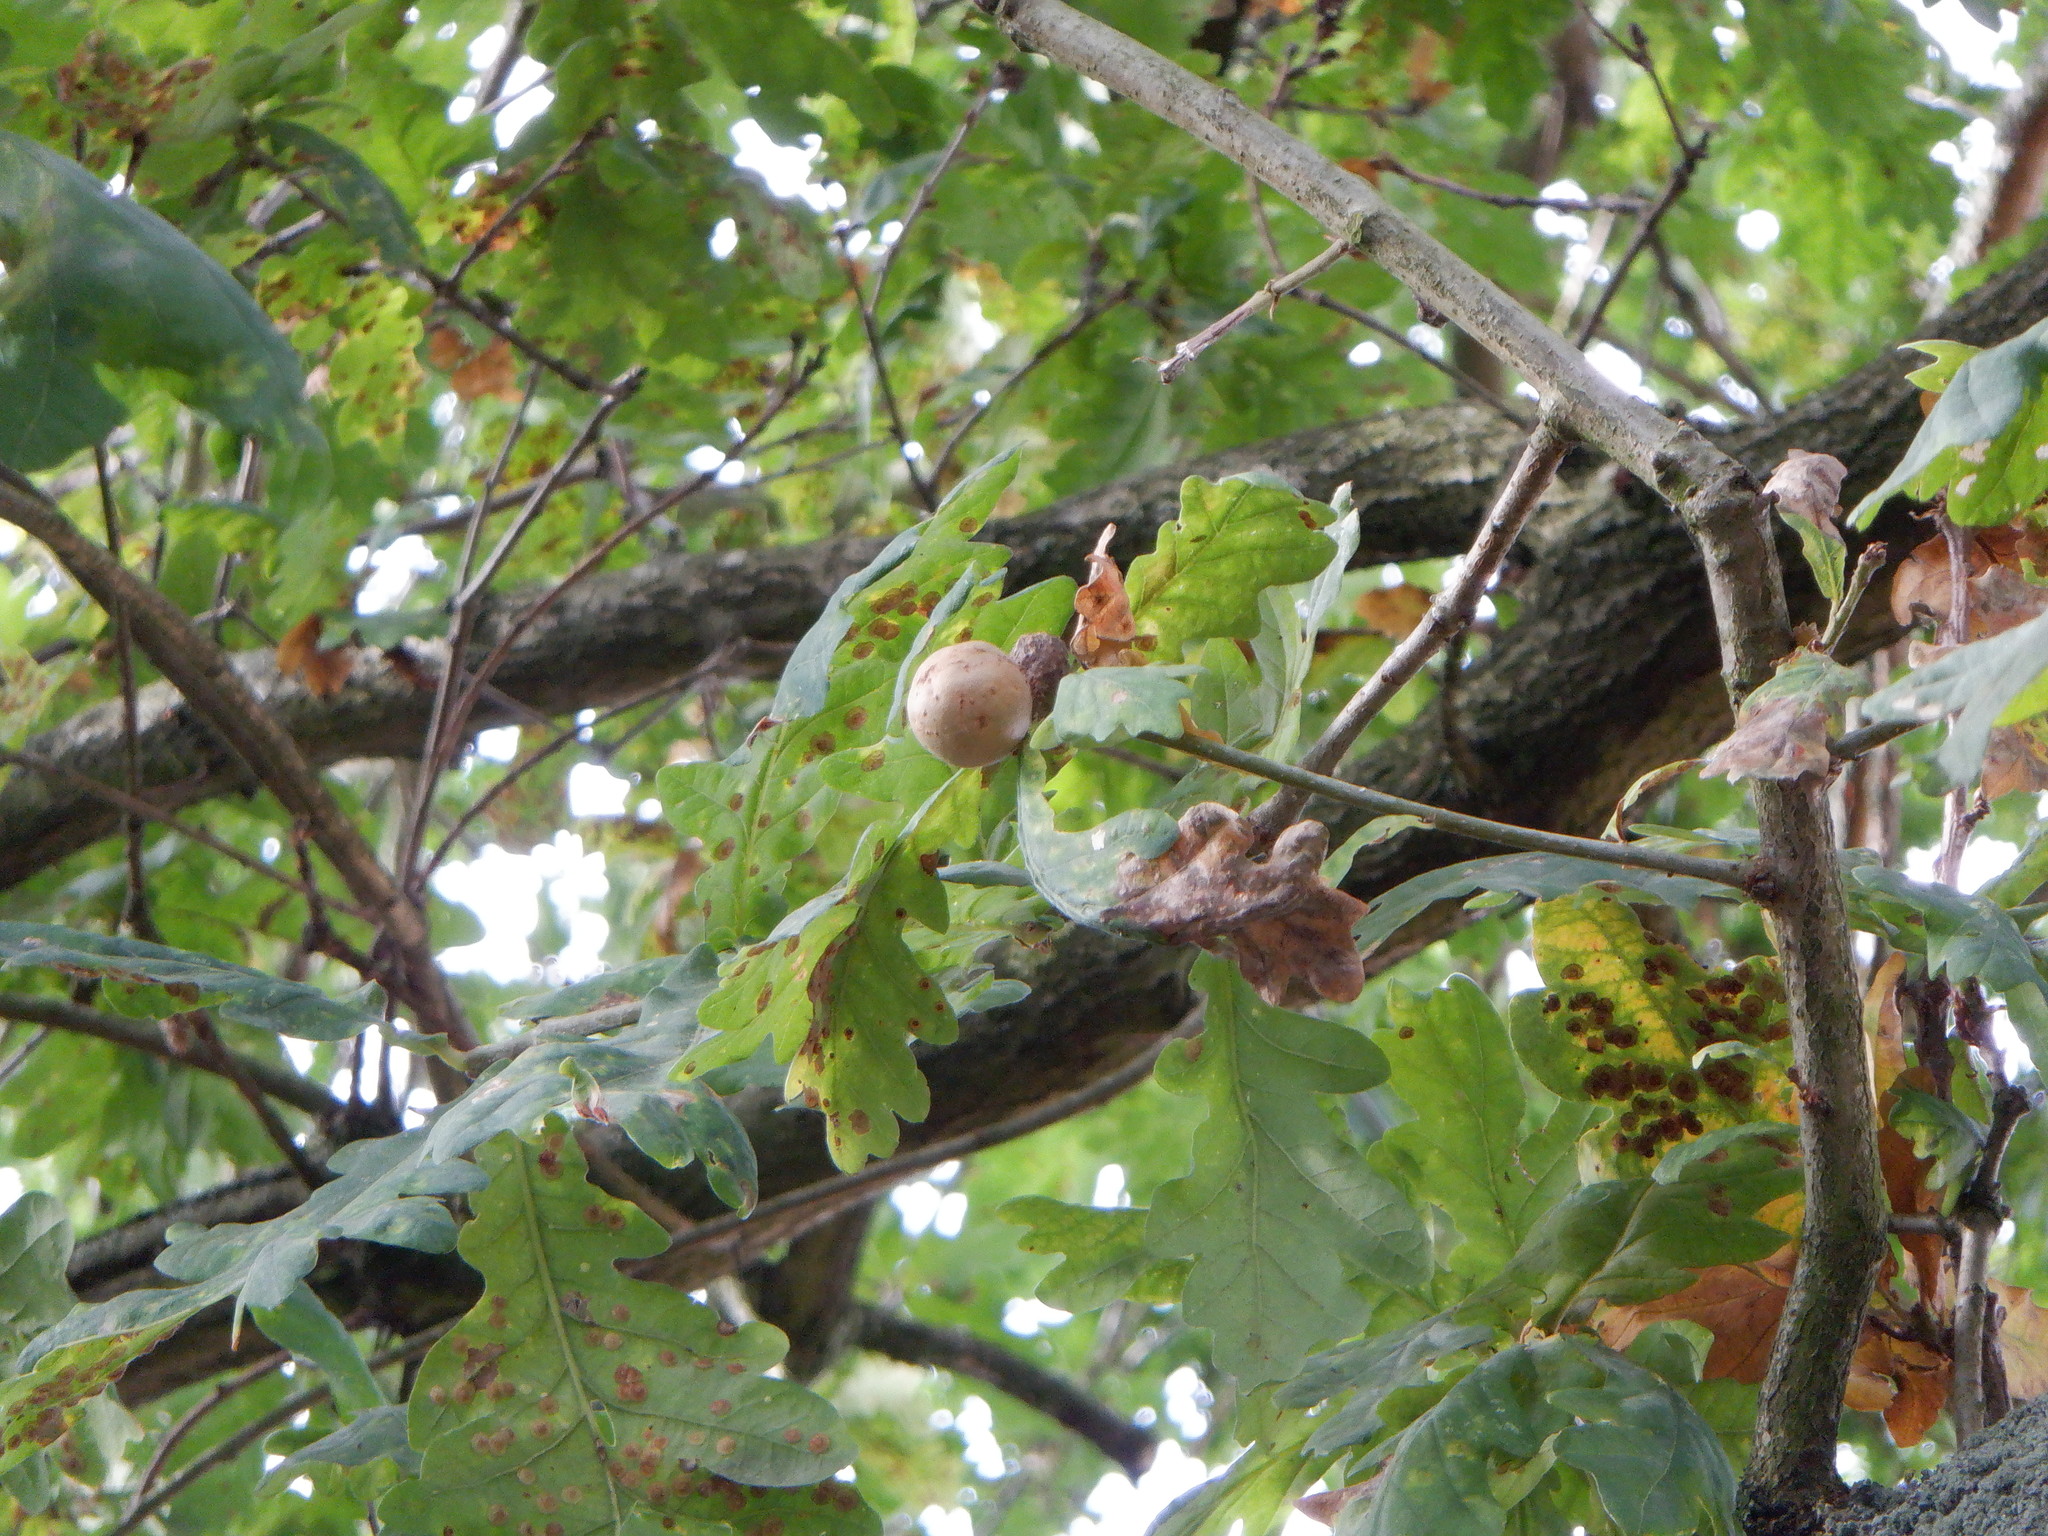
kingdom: Animalia
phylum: Arthropoda
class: Insecta
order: Hymenoptera
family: Cynipidae
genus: Andricus
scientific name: Andricus kollari
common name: Marble gall
